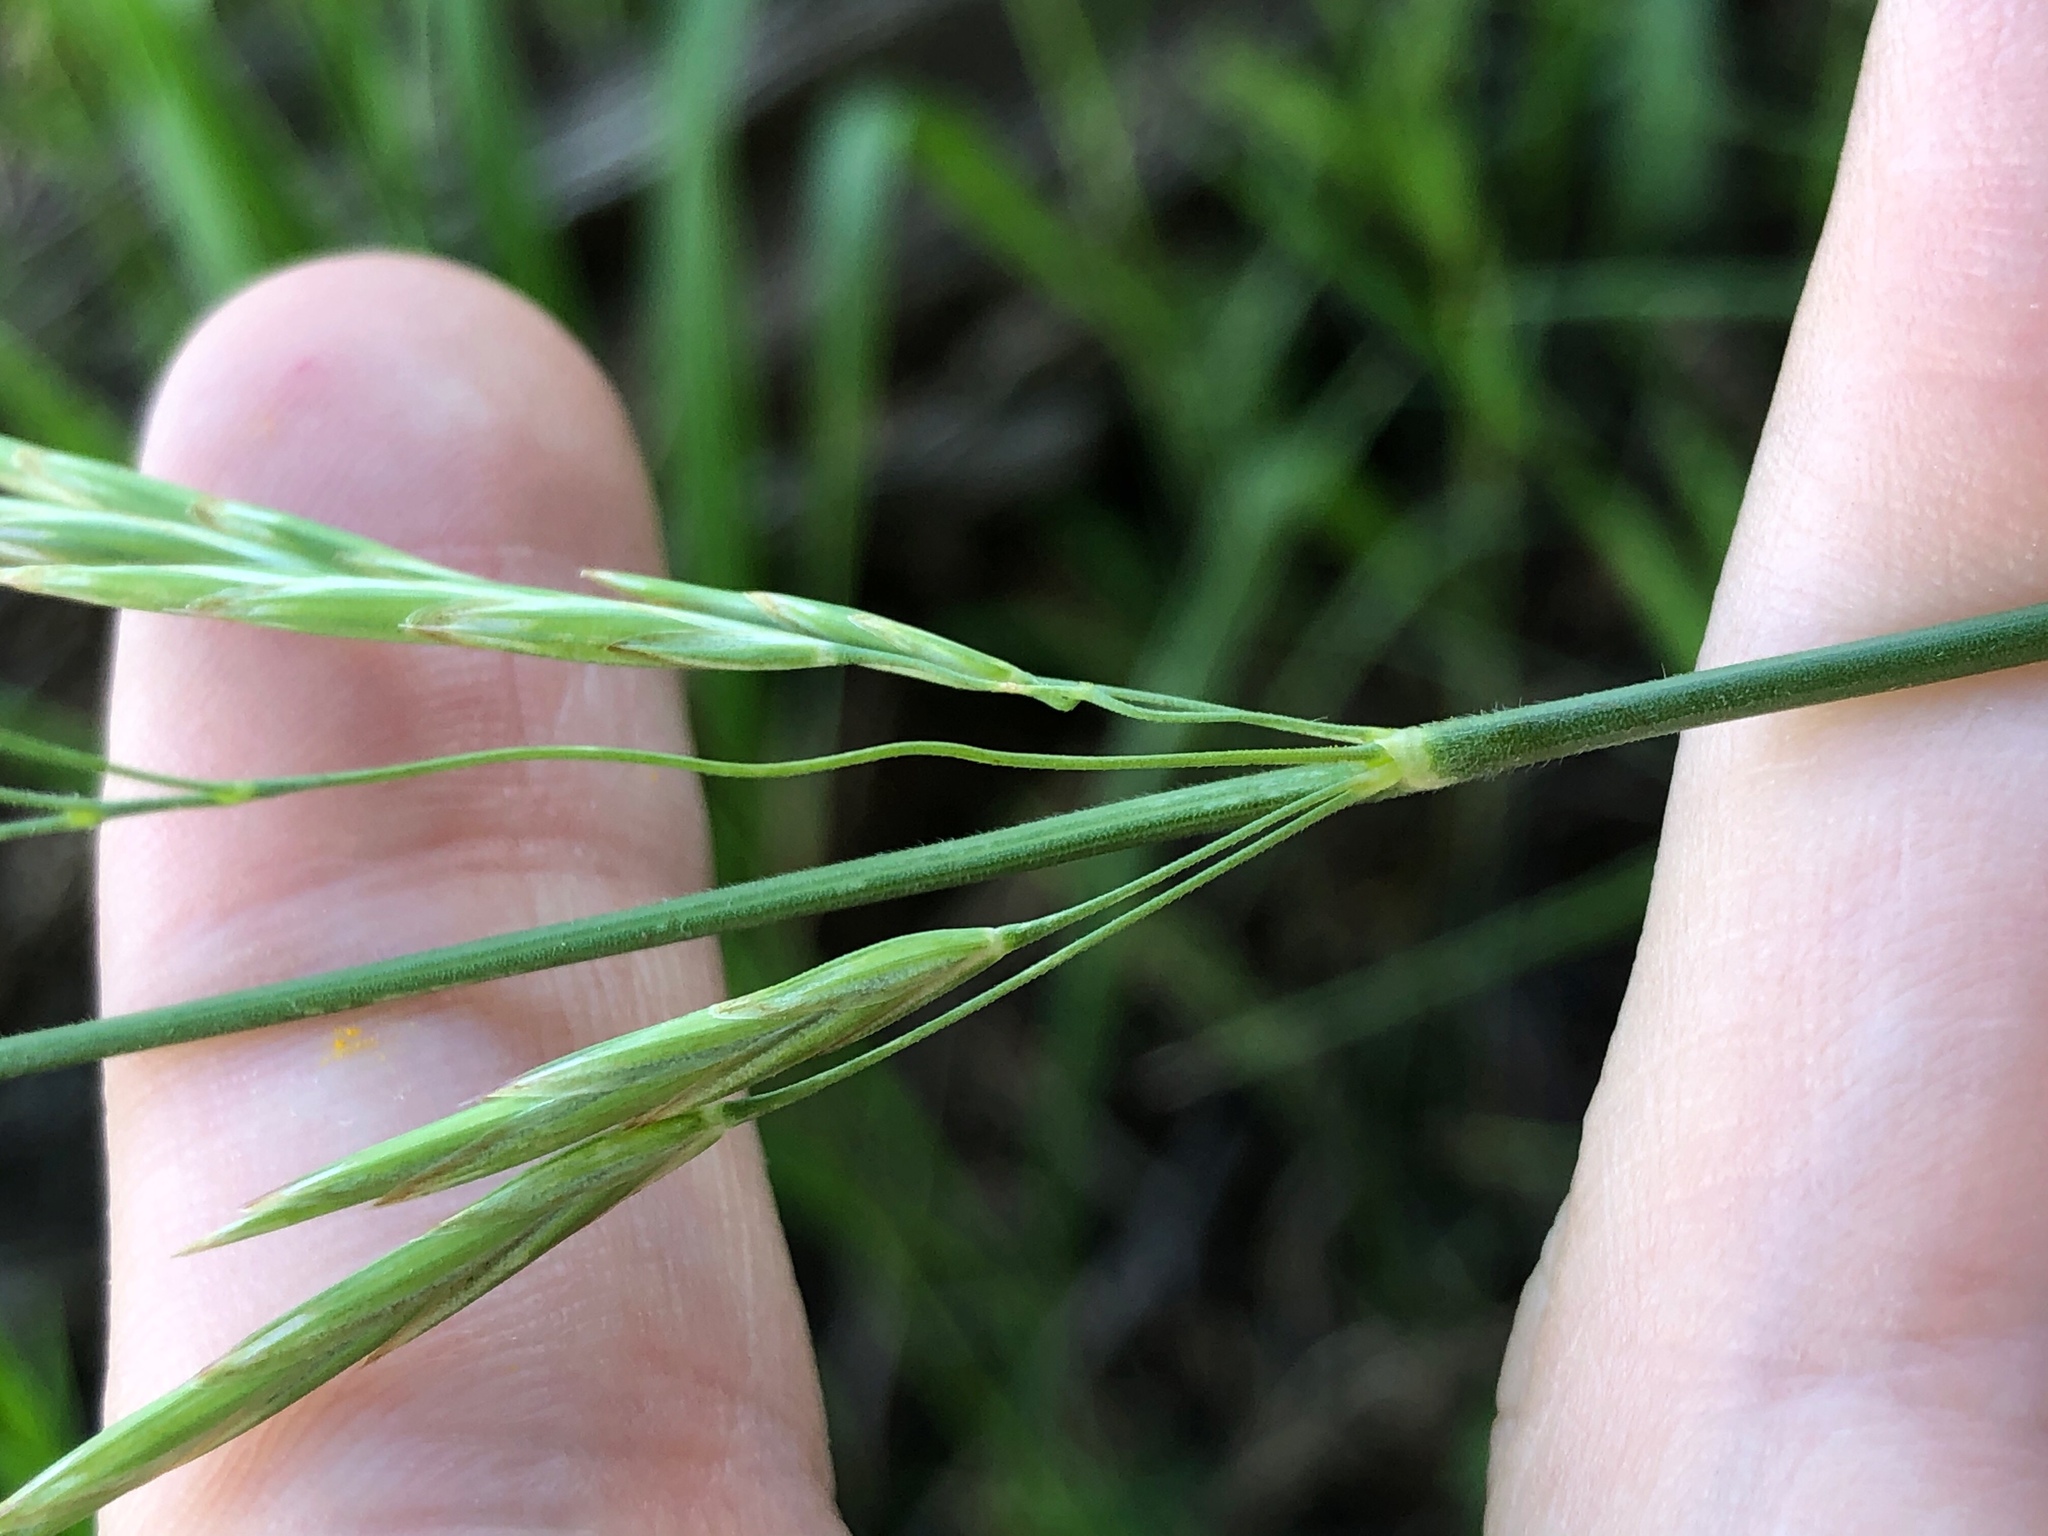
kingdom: Plantae
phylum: Tracheophyta
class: Liliopsida
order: Poales
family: Poaceae
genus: Bromus
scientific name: Bromus inermis
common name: Smooth brome
